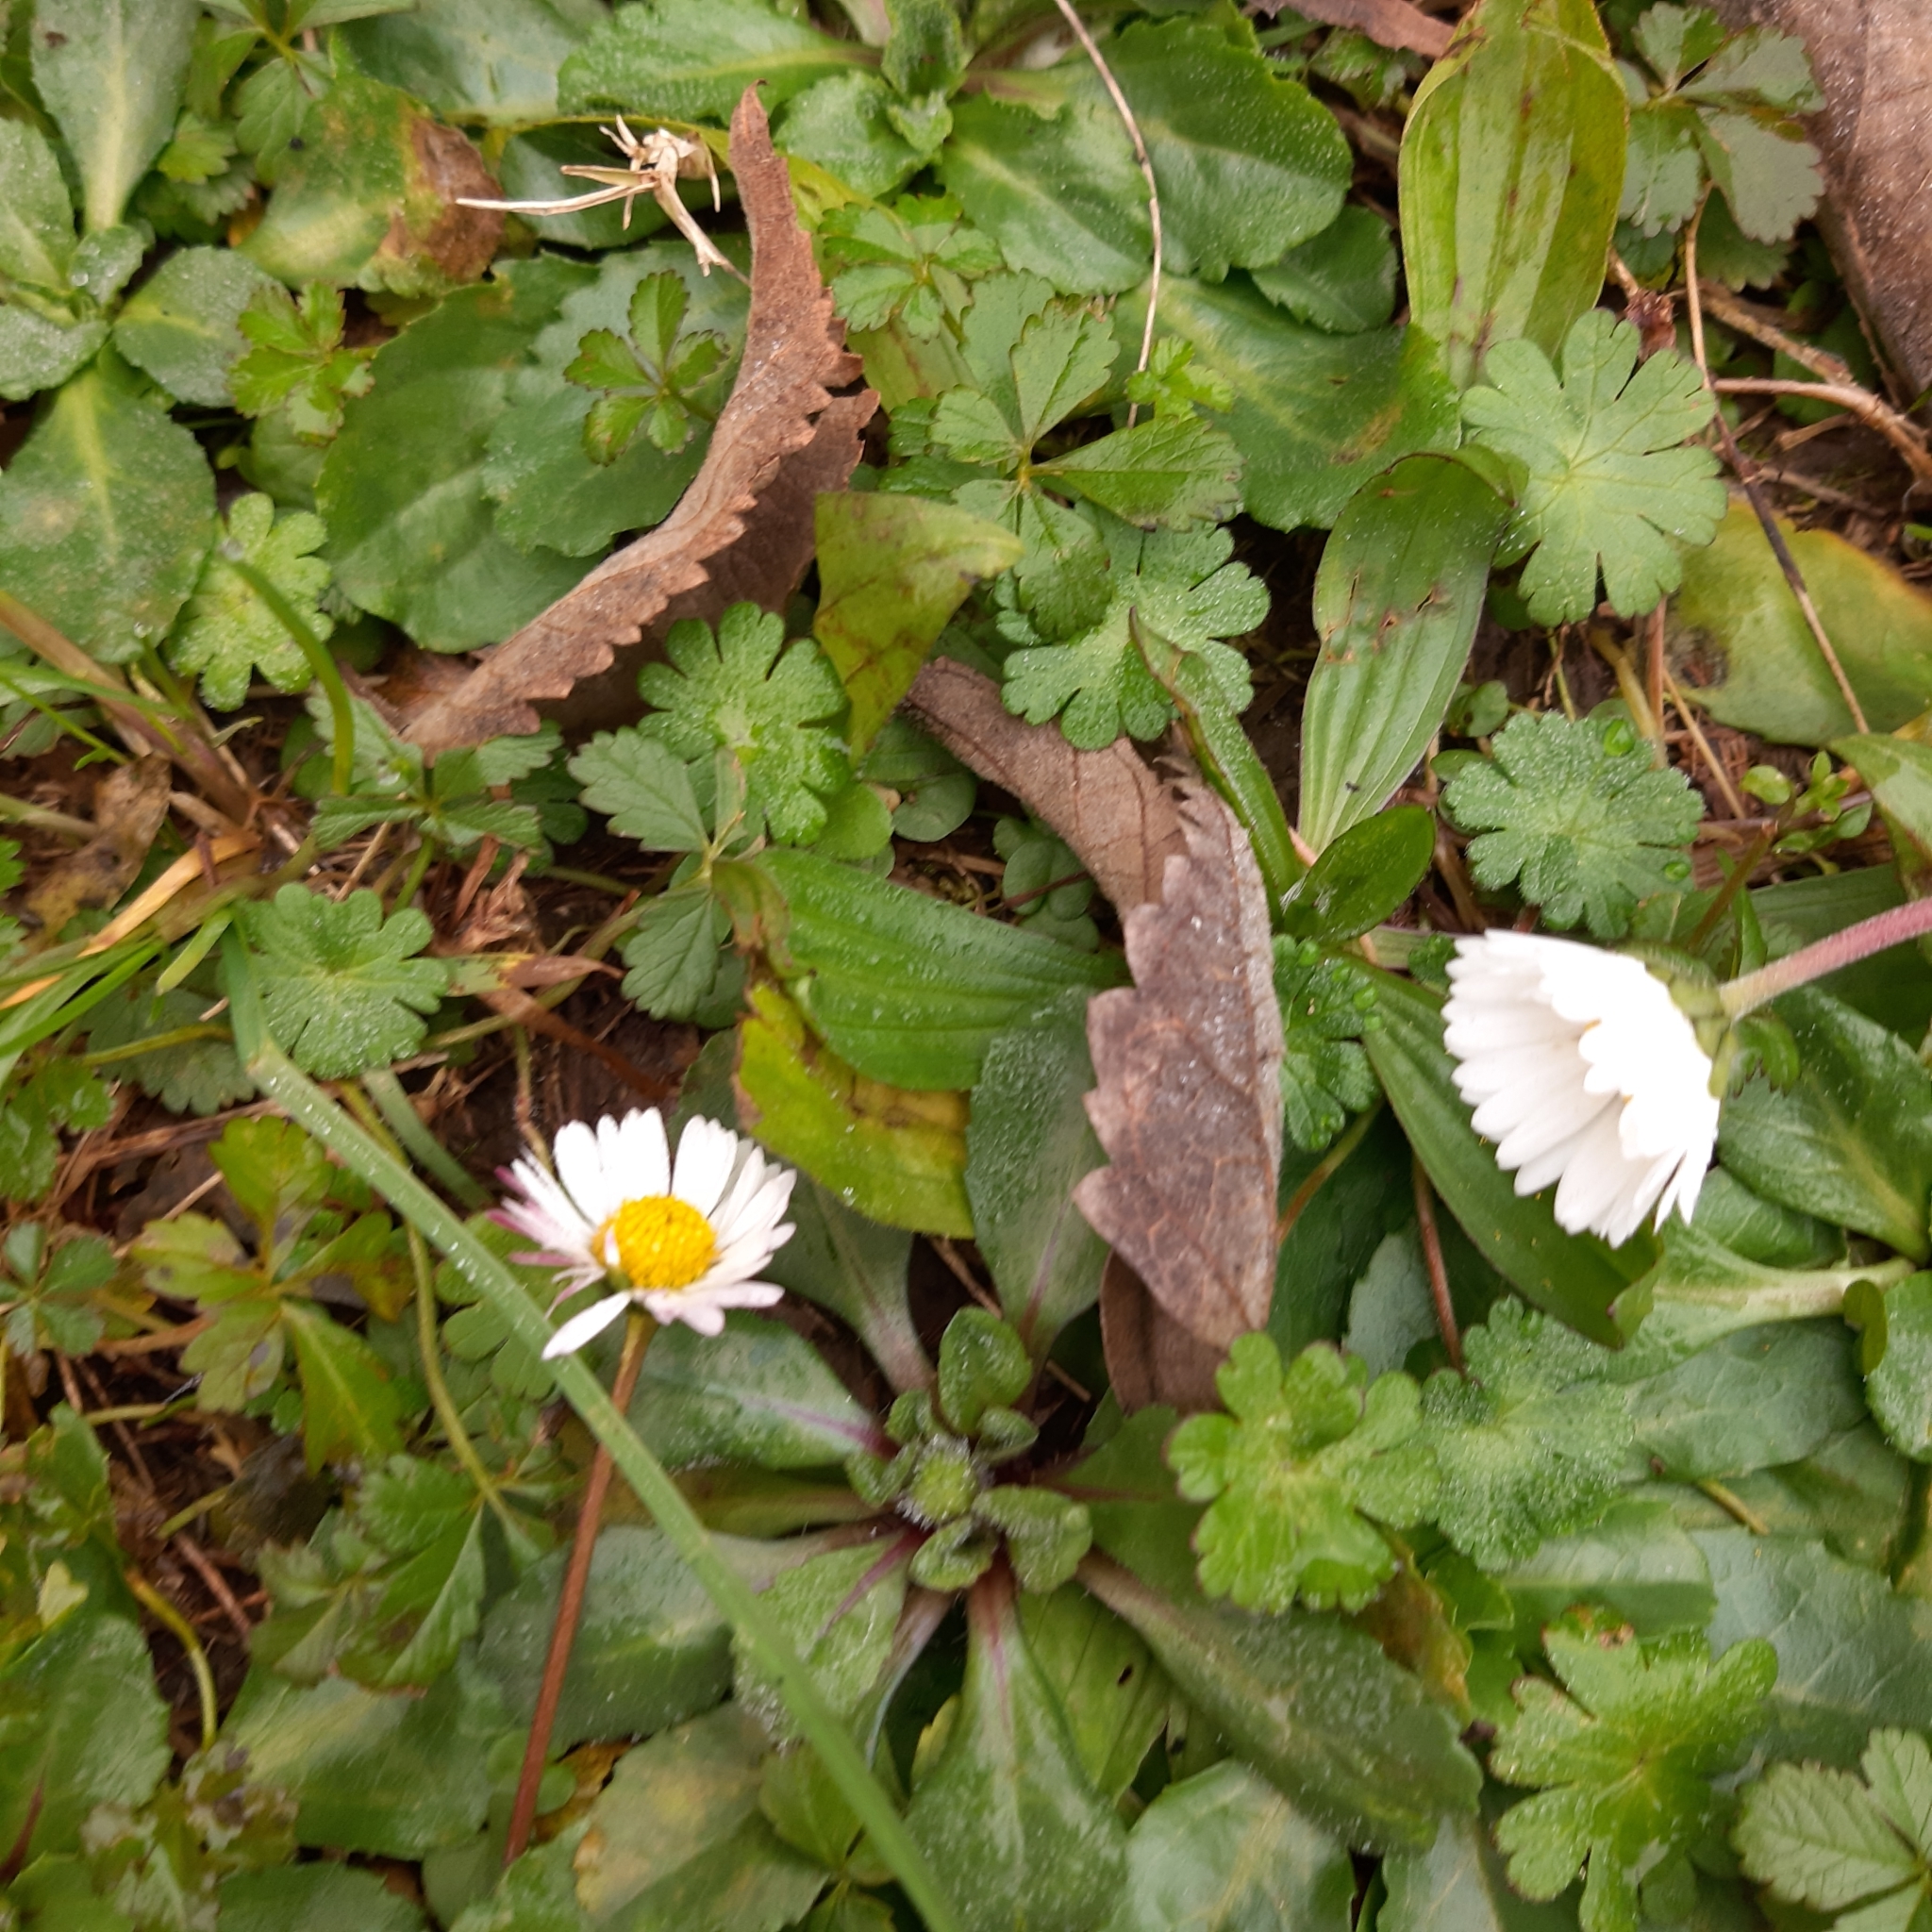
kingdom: Plantae
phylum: Tracheophyta
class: Magnoliopsida
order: Asterales
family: Asteraceae
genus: Bellis
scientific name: Bellis perennis
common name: Lawndaisy
